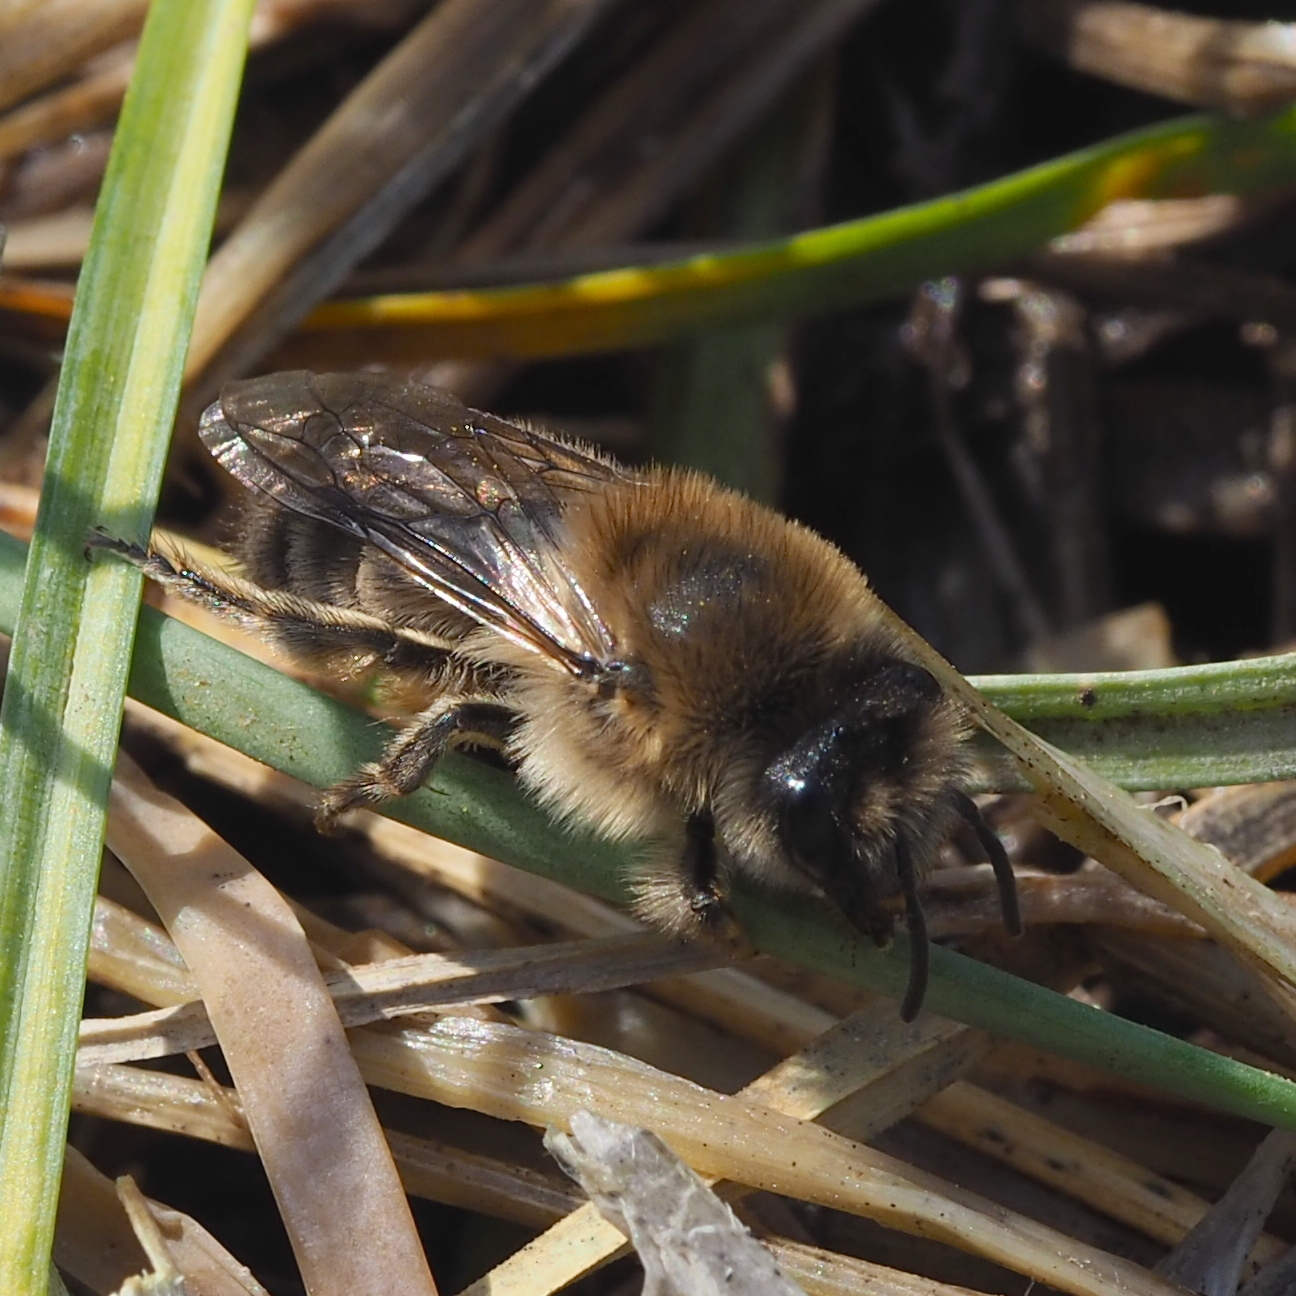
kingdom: Animalia
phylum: Arthropoda
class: Insecta
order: Hymenoptera
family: Colletidae
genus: Colletes
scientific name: Colletes cunicularius
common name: Early colletes
